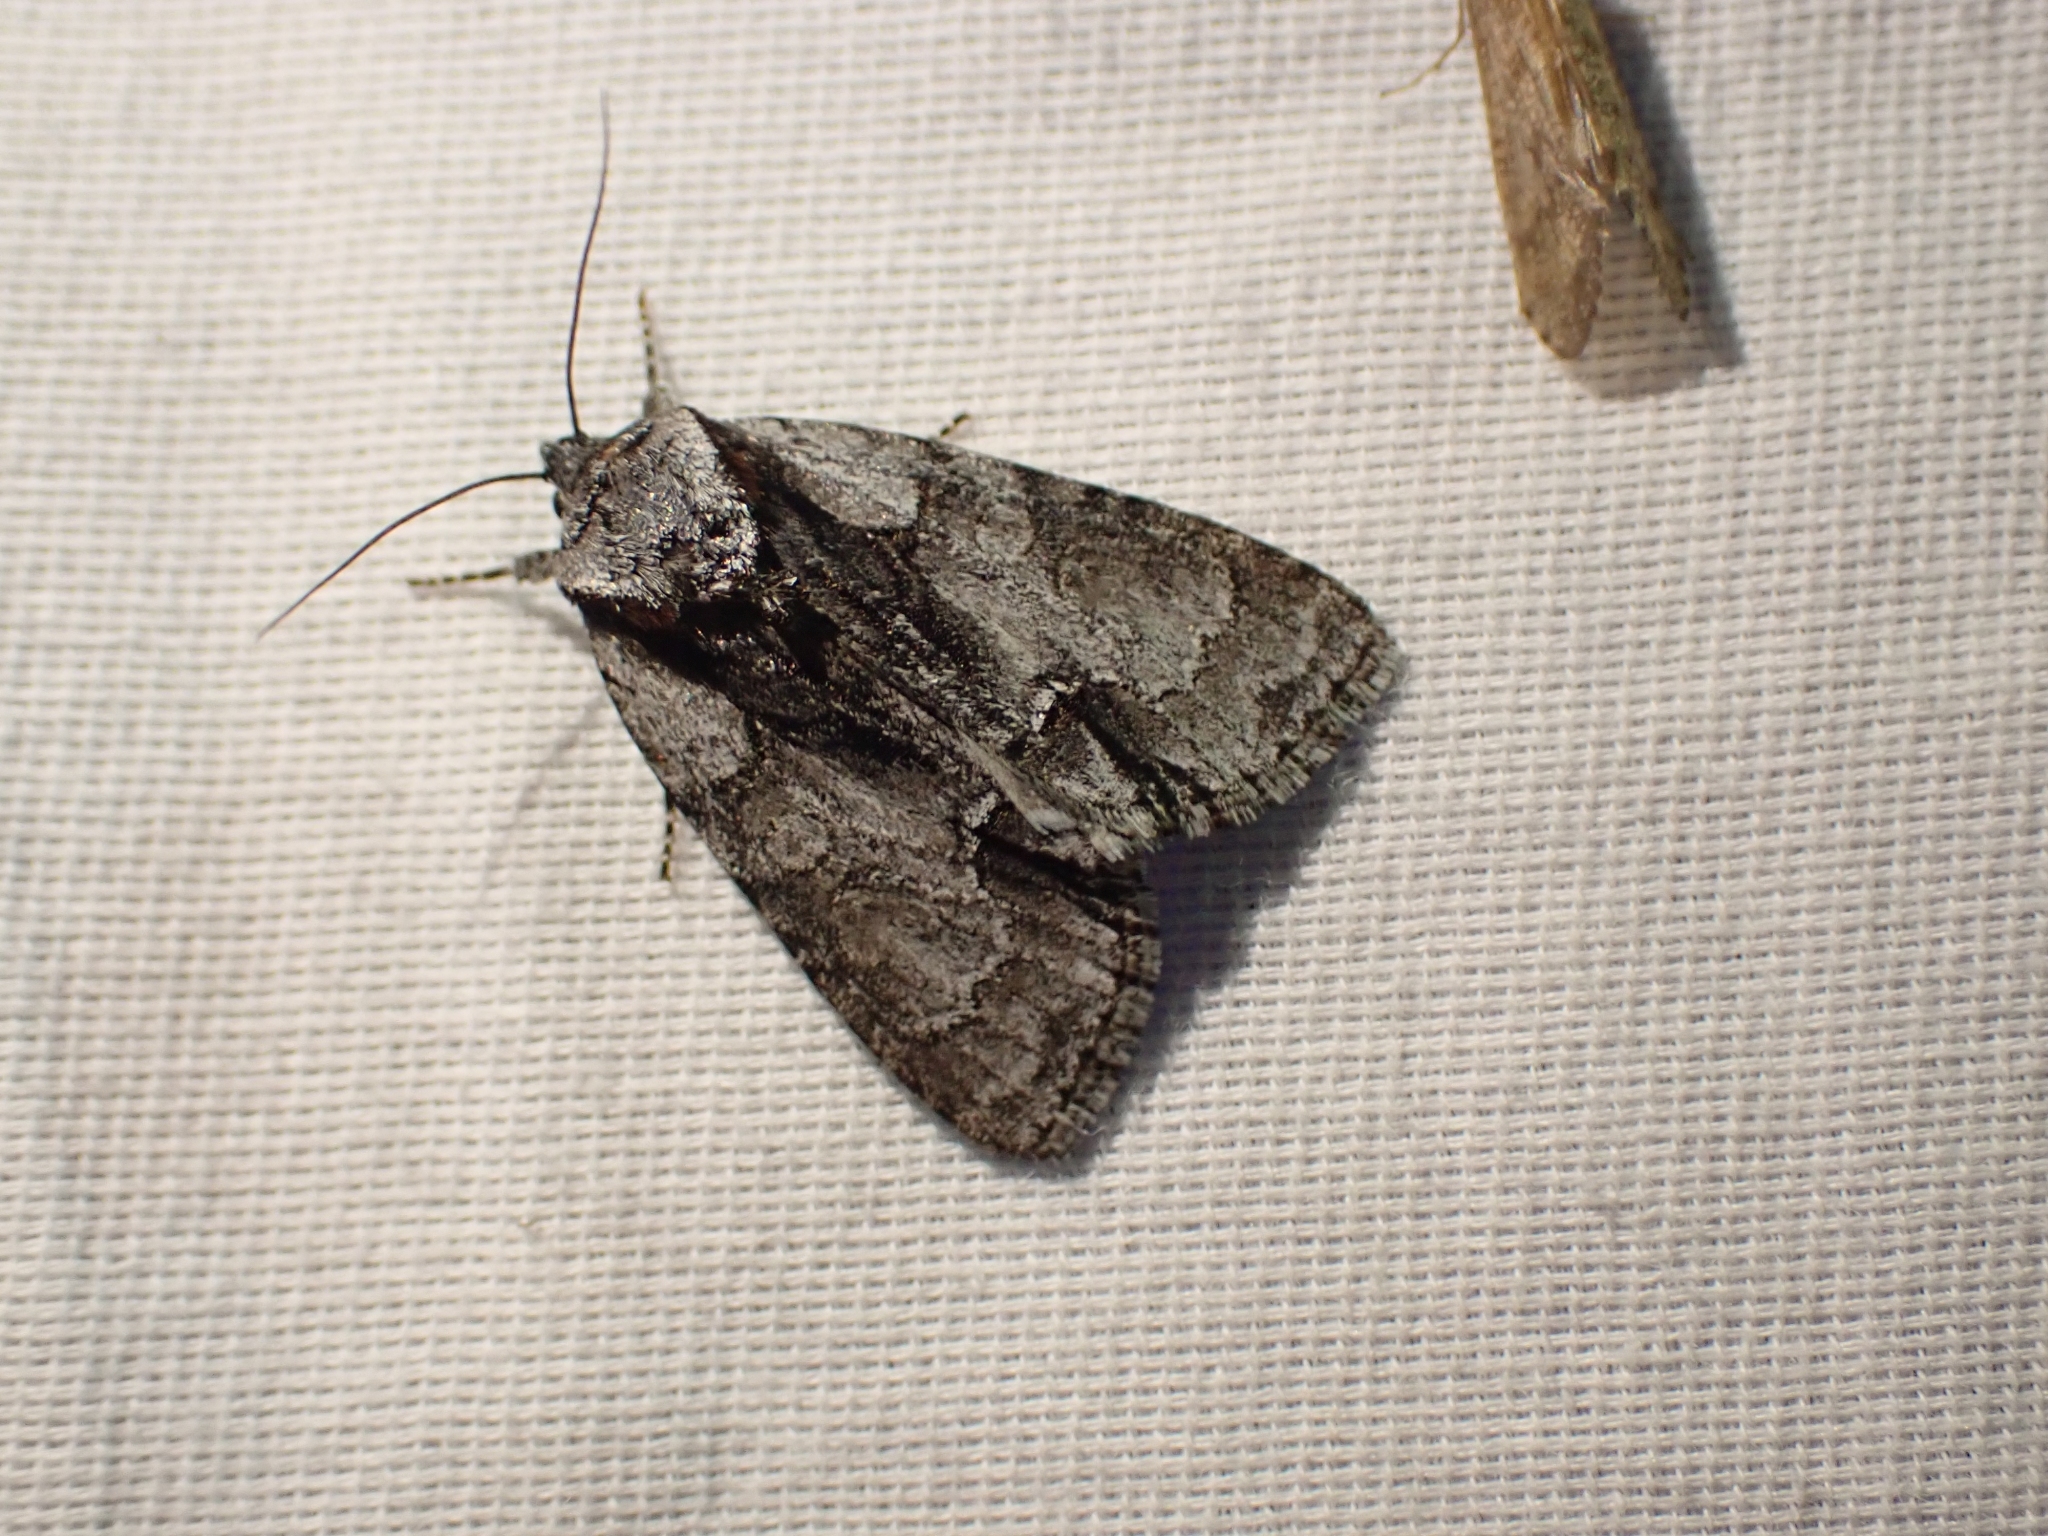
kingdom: Animalia
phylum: Arthropoda
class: Insecta
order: Lepidoptera
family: Noctuidae
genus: Acronicta
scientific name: Acronicta mansueta
